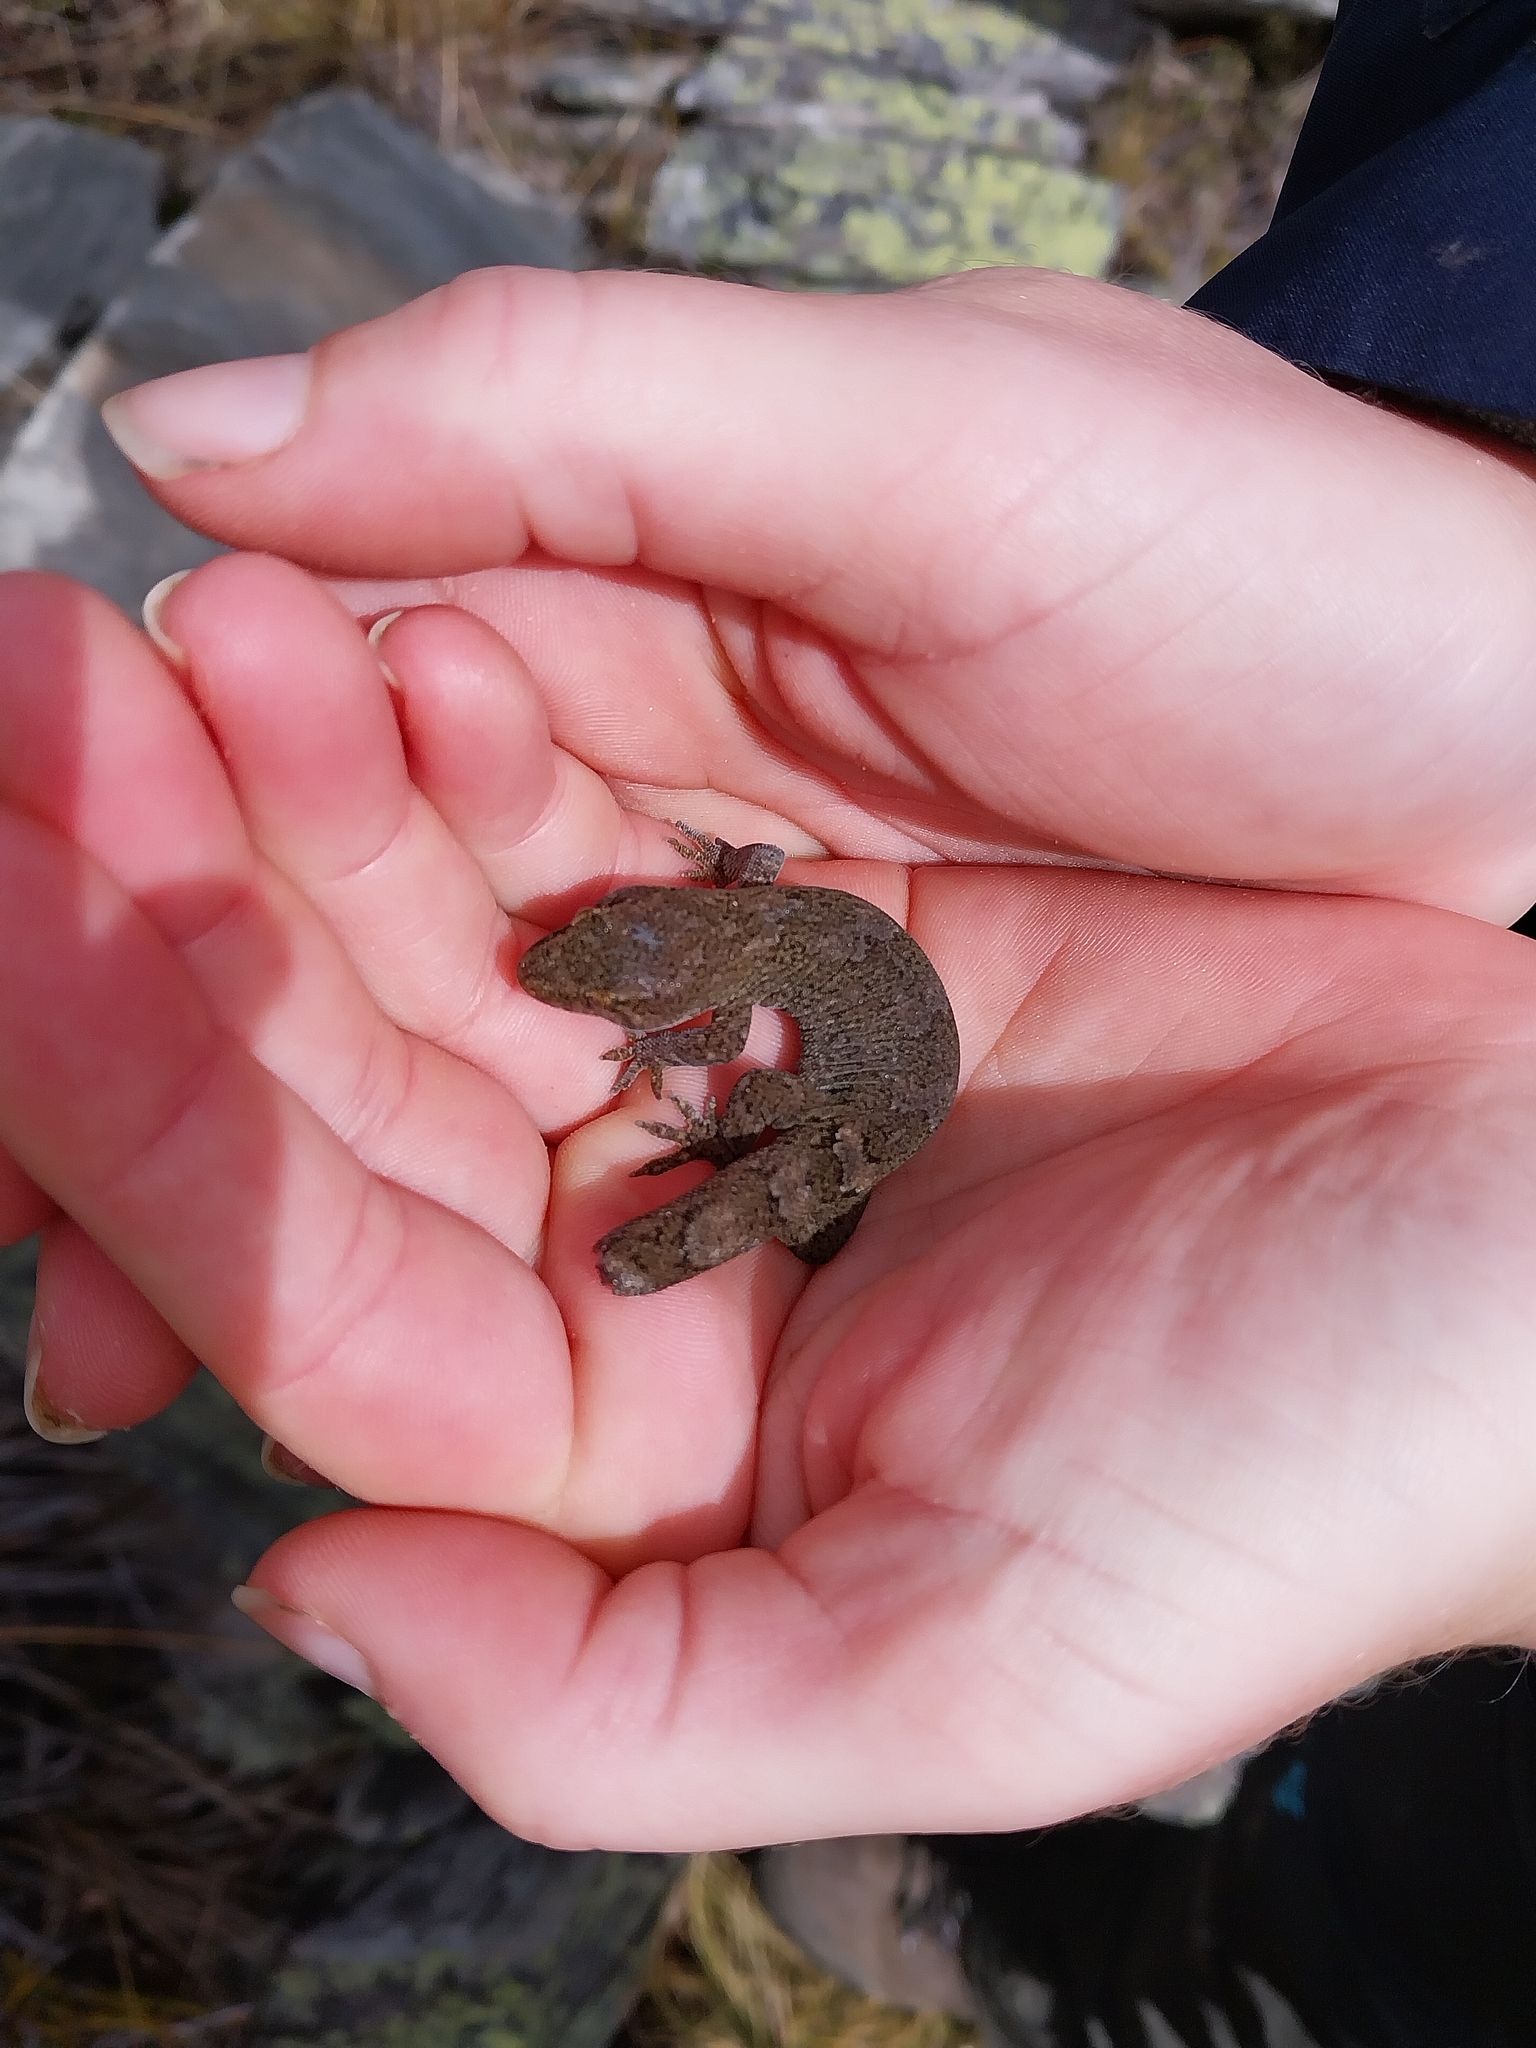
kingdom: Animalia
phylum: Chordata
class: Squamata
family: Diplodactylidae
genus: Woodworthia
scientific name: Woodworthia
